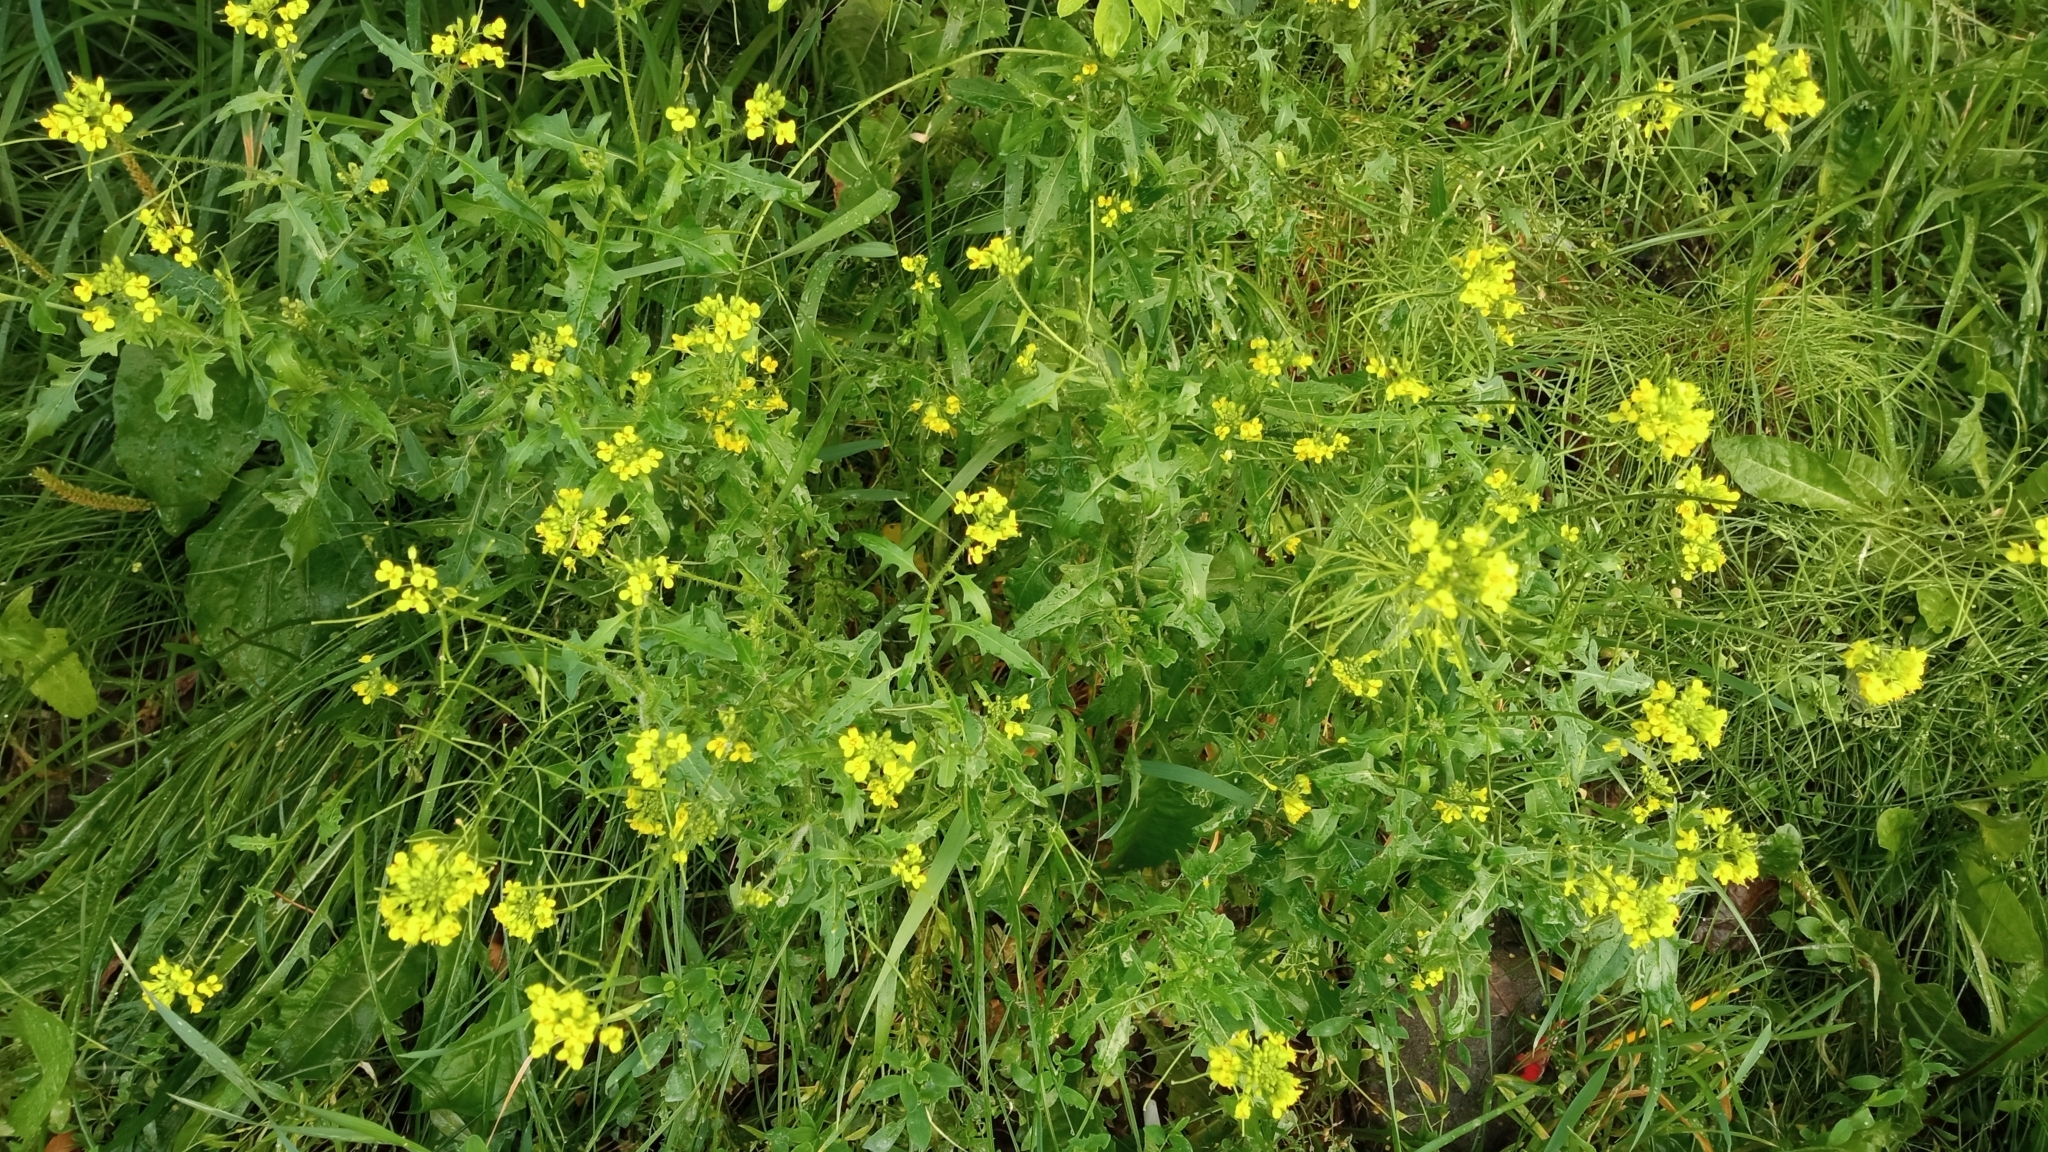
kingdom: Plantae
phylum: Tracheophyta
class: Magnoliopsida
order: Brassicales
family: Brassicaceae
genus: Sisymbrium
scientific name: Sisymbrium loeselii
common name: False london-rocket
